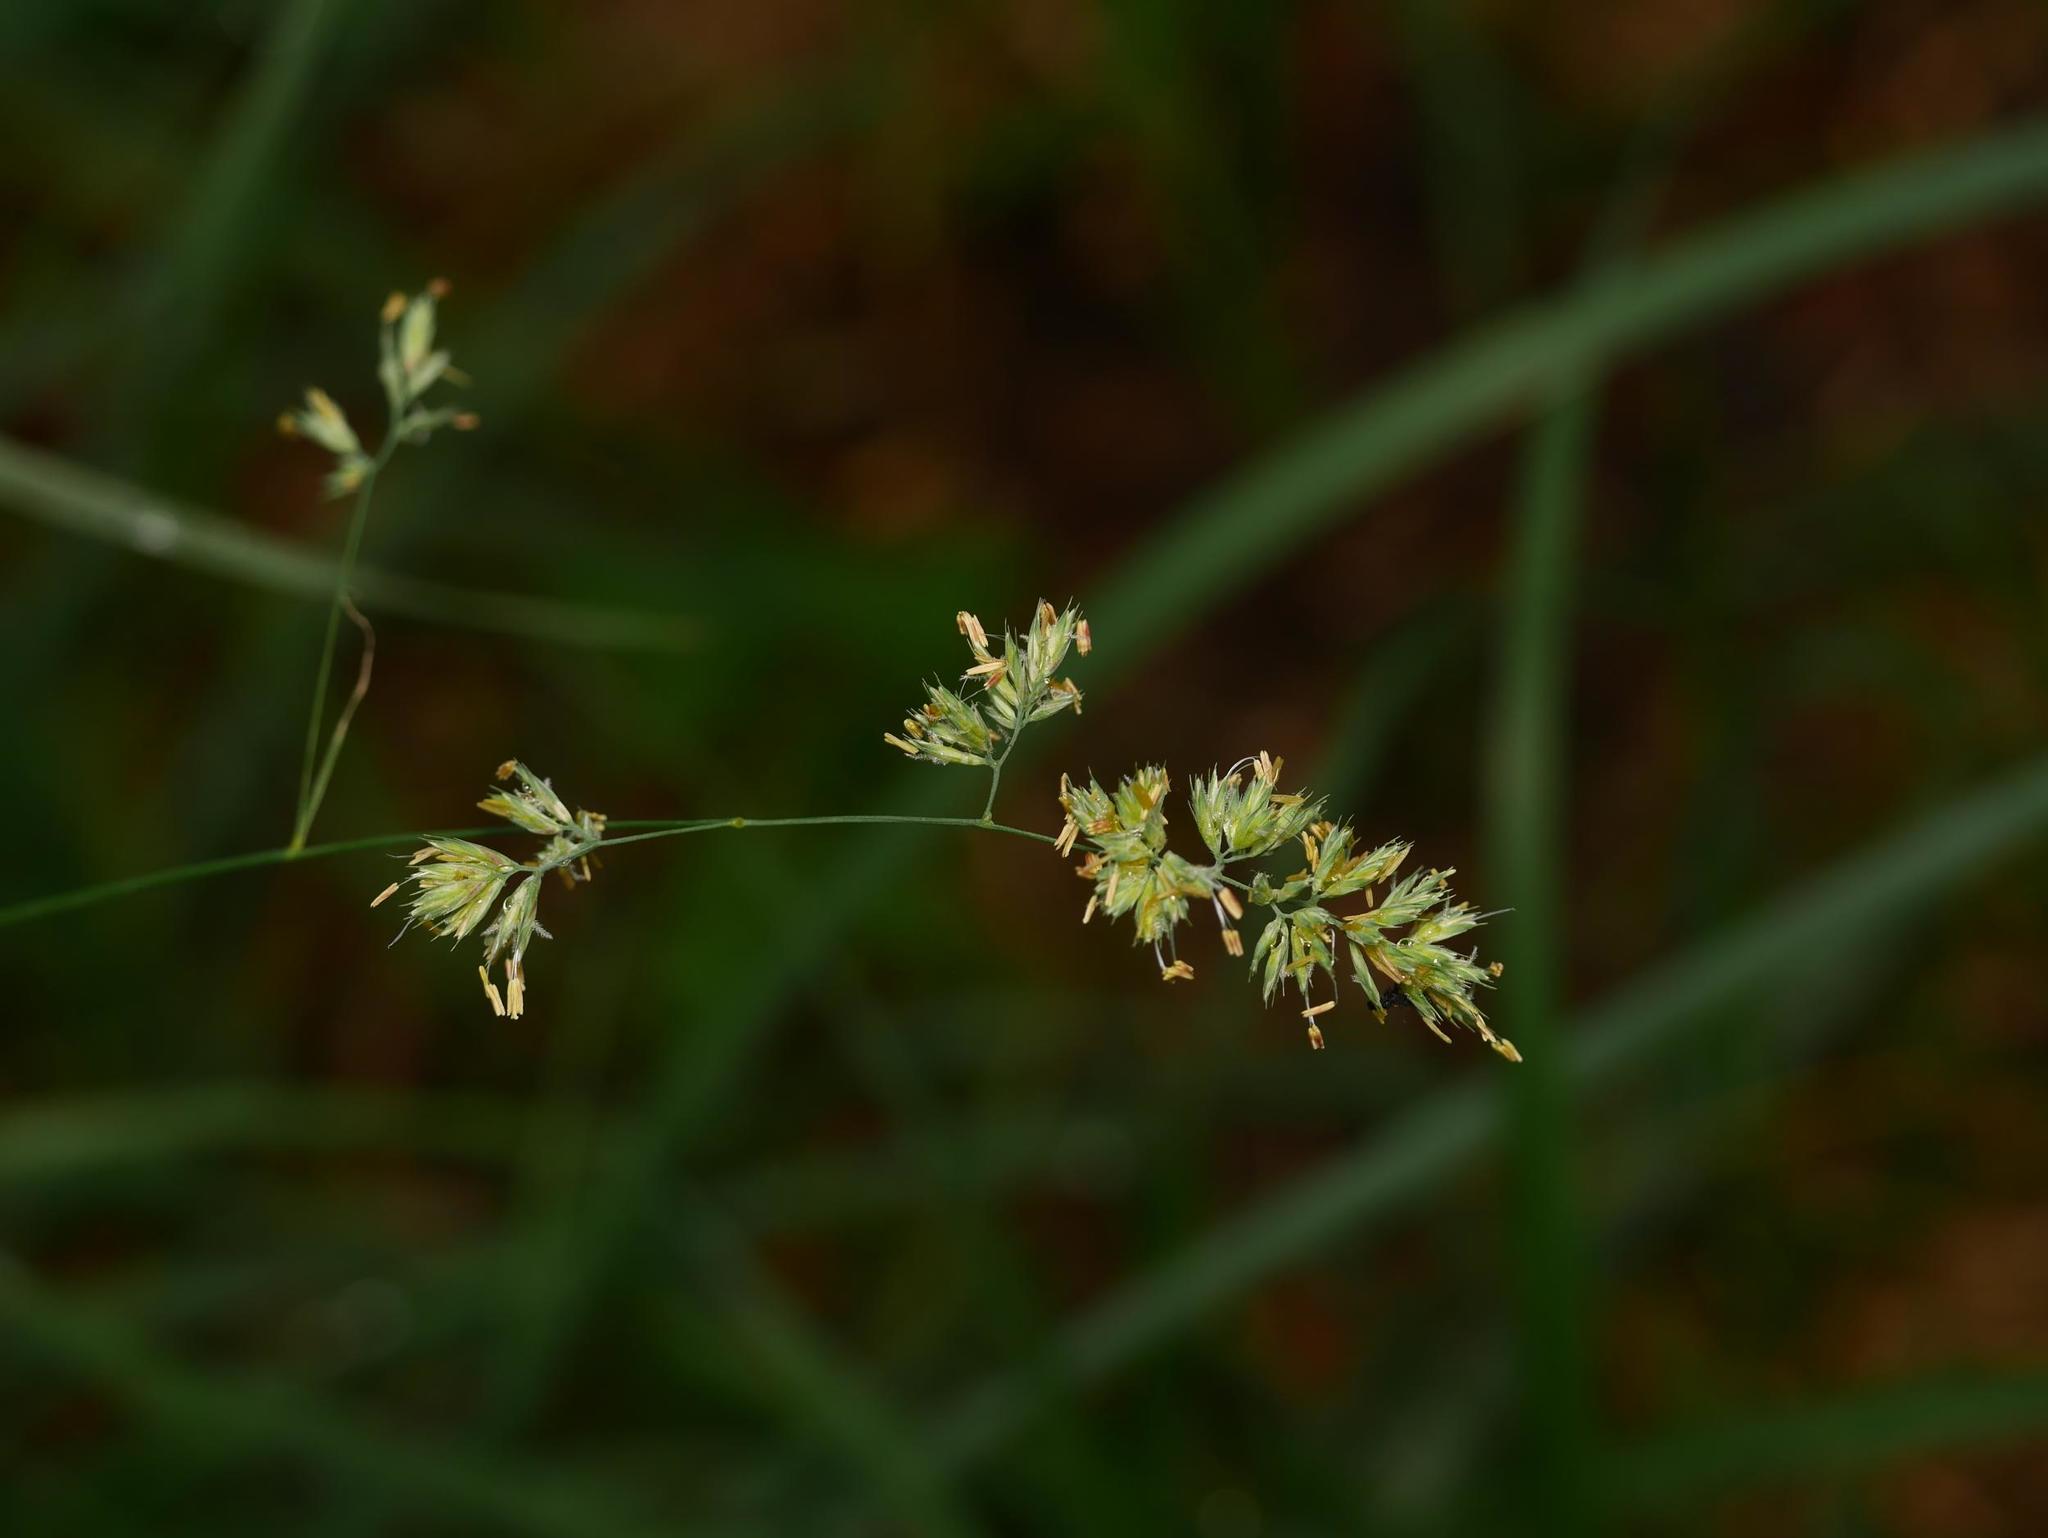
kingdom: Plantae
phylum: Tracheophyta
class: Liliopsida
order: Poales
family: Poaceae
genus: Dactylis
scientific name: Dactylis glomerata
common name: Orchardgrass
